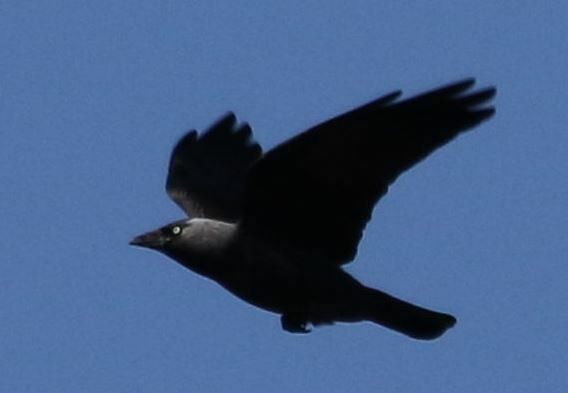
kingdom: Animalia
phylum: Chordata
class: Aves
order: Passeriformes
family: Corvidae
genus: Coloeus
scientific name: Coloeus monedula
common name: Western jackdaw
